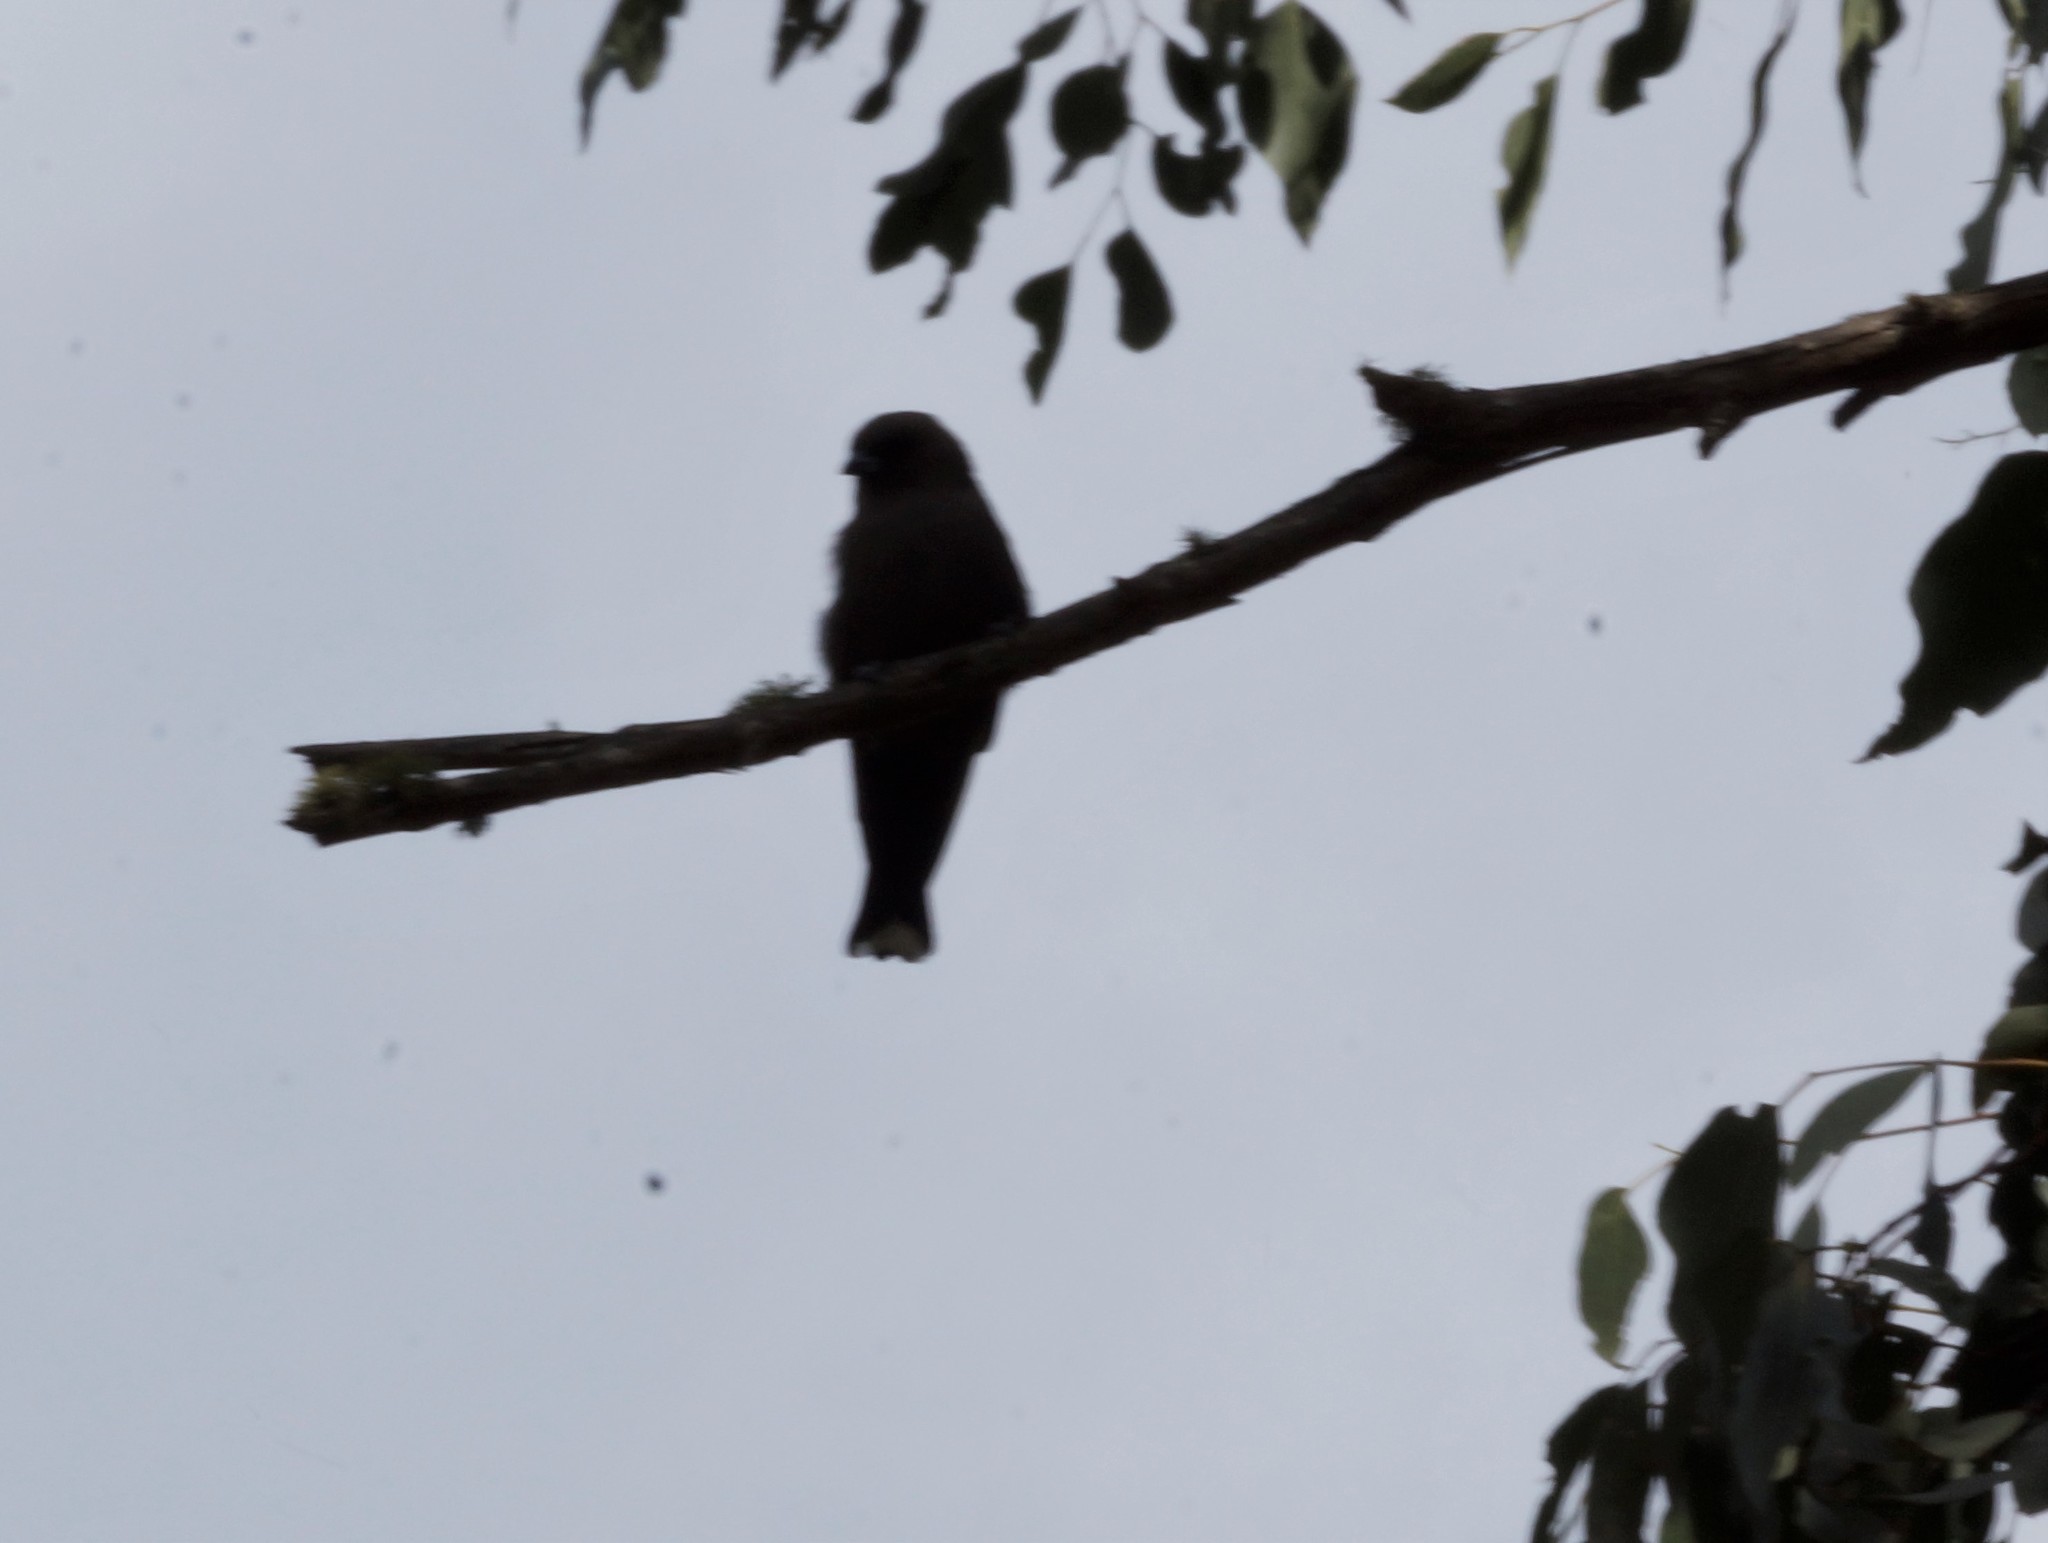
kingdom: Animalia
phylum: Chordata
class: Aves
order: Passeriformes
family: Artamidae
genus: Artamus
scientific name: Artamus cyanopterus
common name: Dusky woodswallow
